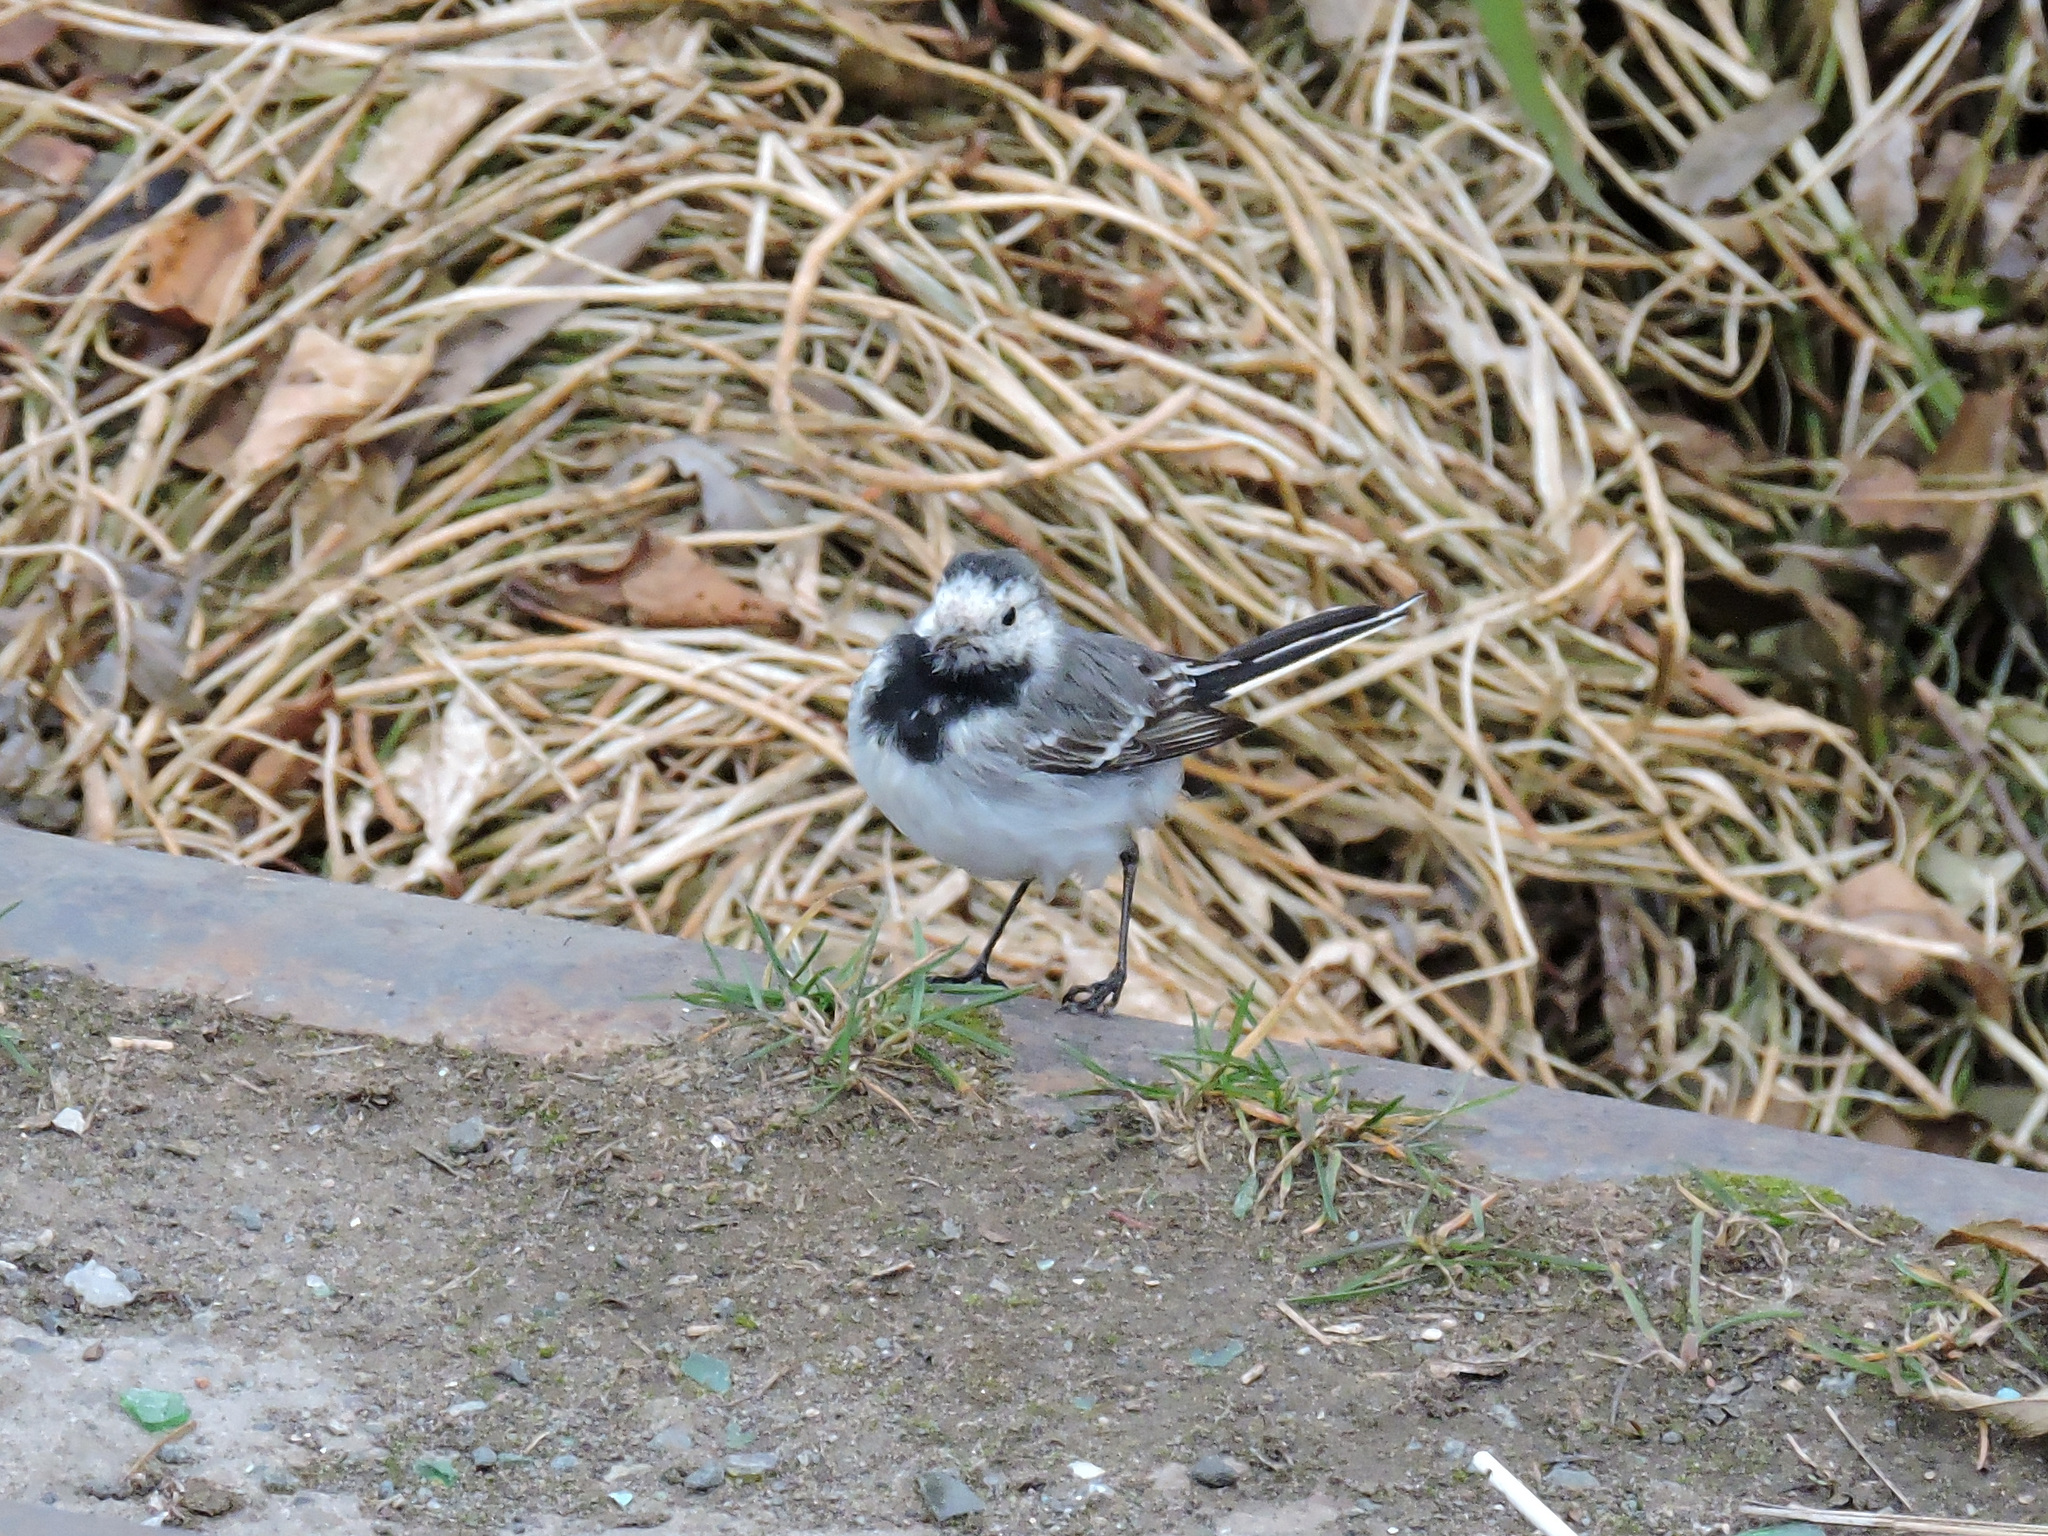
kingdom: Animalia
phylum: Chordata
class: Aves
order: Passeriformes
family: Motacillidae
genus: Motacilla
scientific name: Motacilla alba
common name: White wagtail
